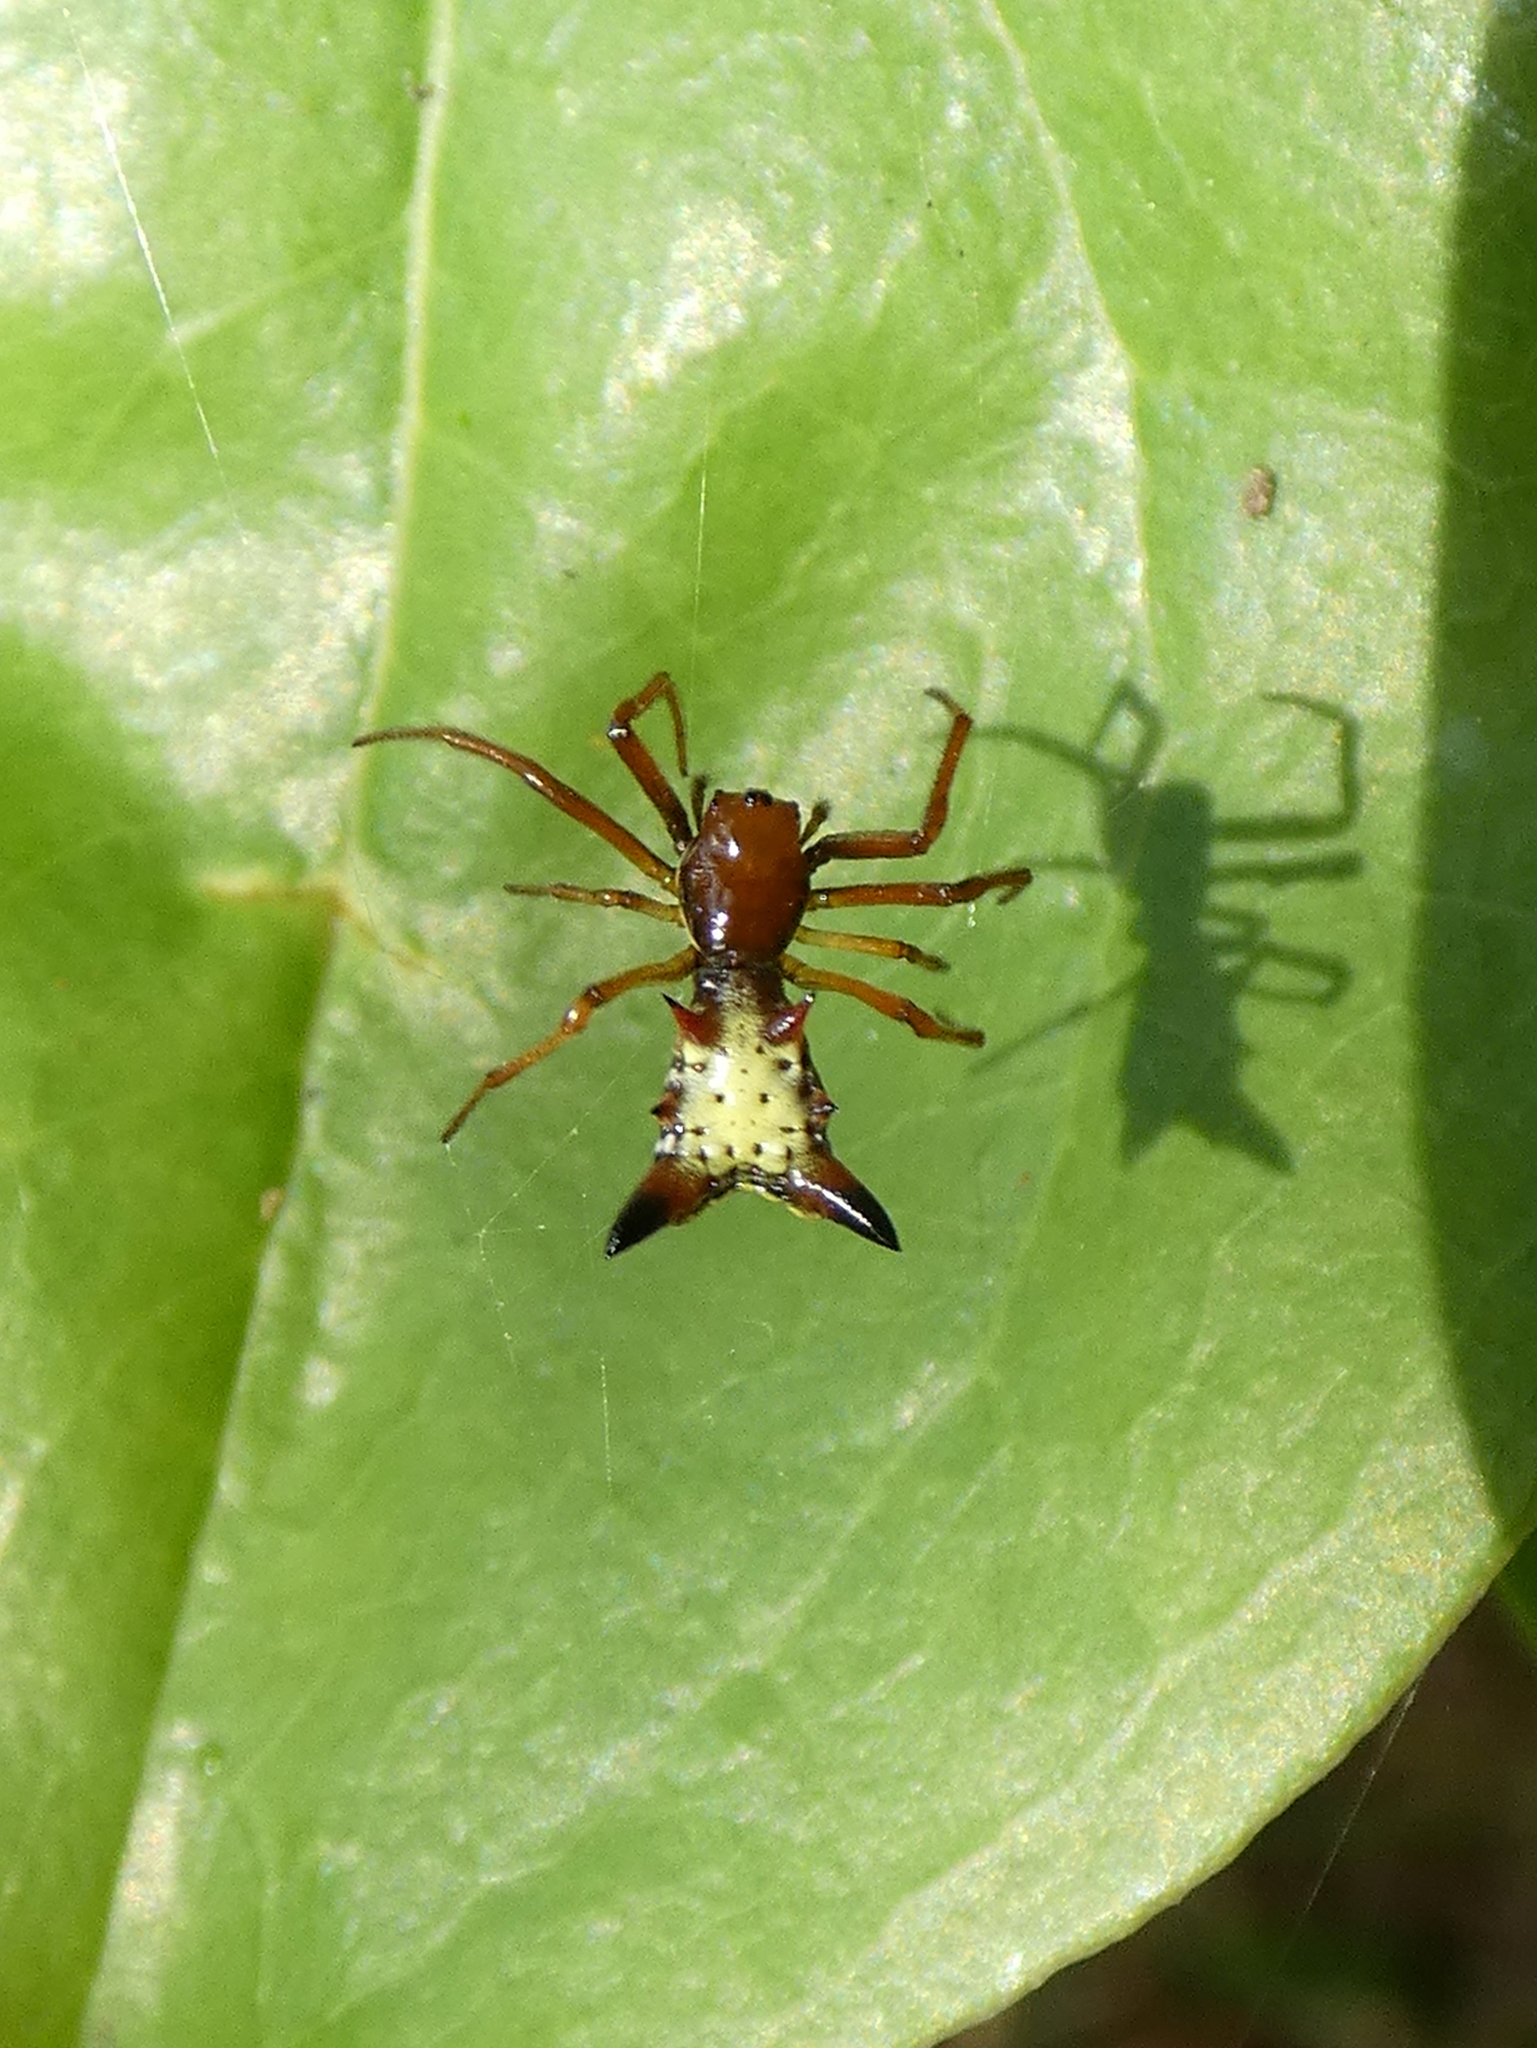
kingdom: Animalia
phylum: Arthropoda
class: Arachnida
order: Araneae
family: Araneidae
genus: Micrathena
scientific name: Micrathena sagittata
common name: Orb weavers
